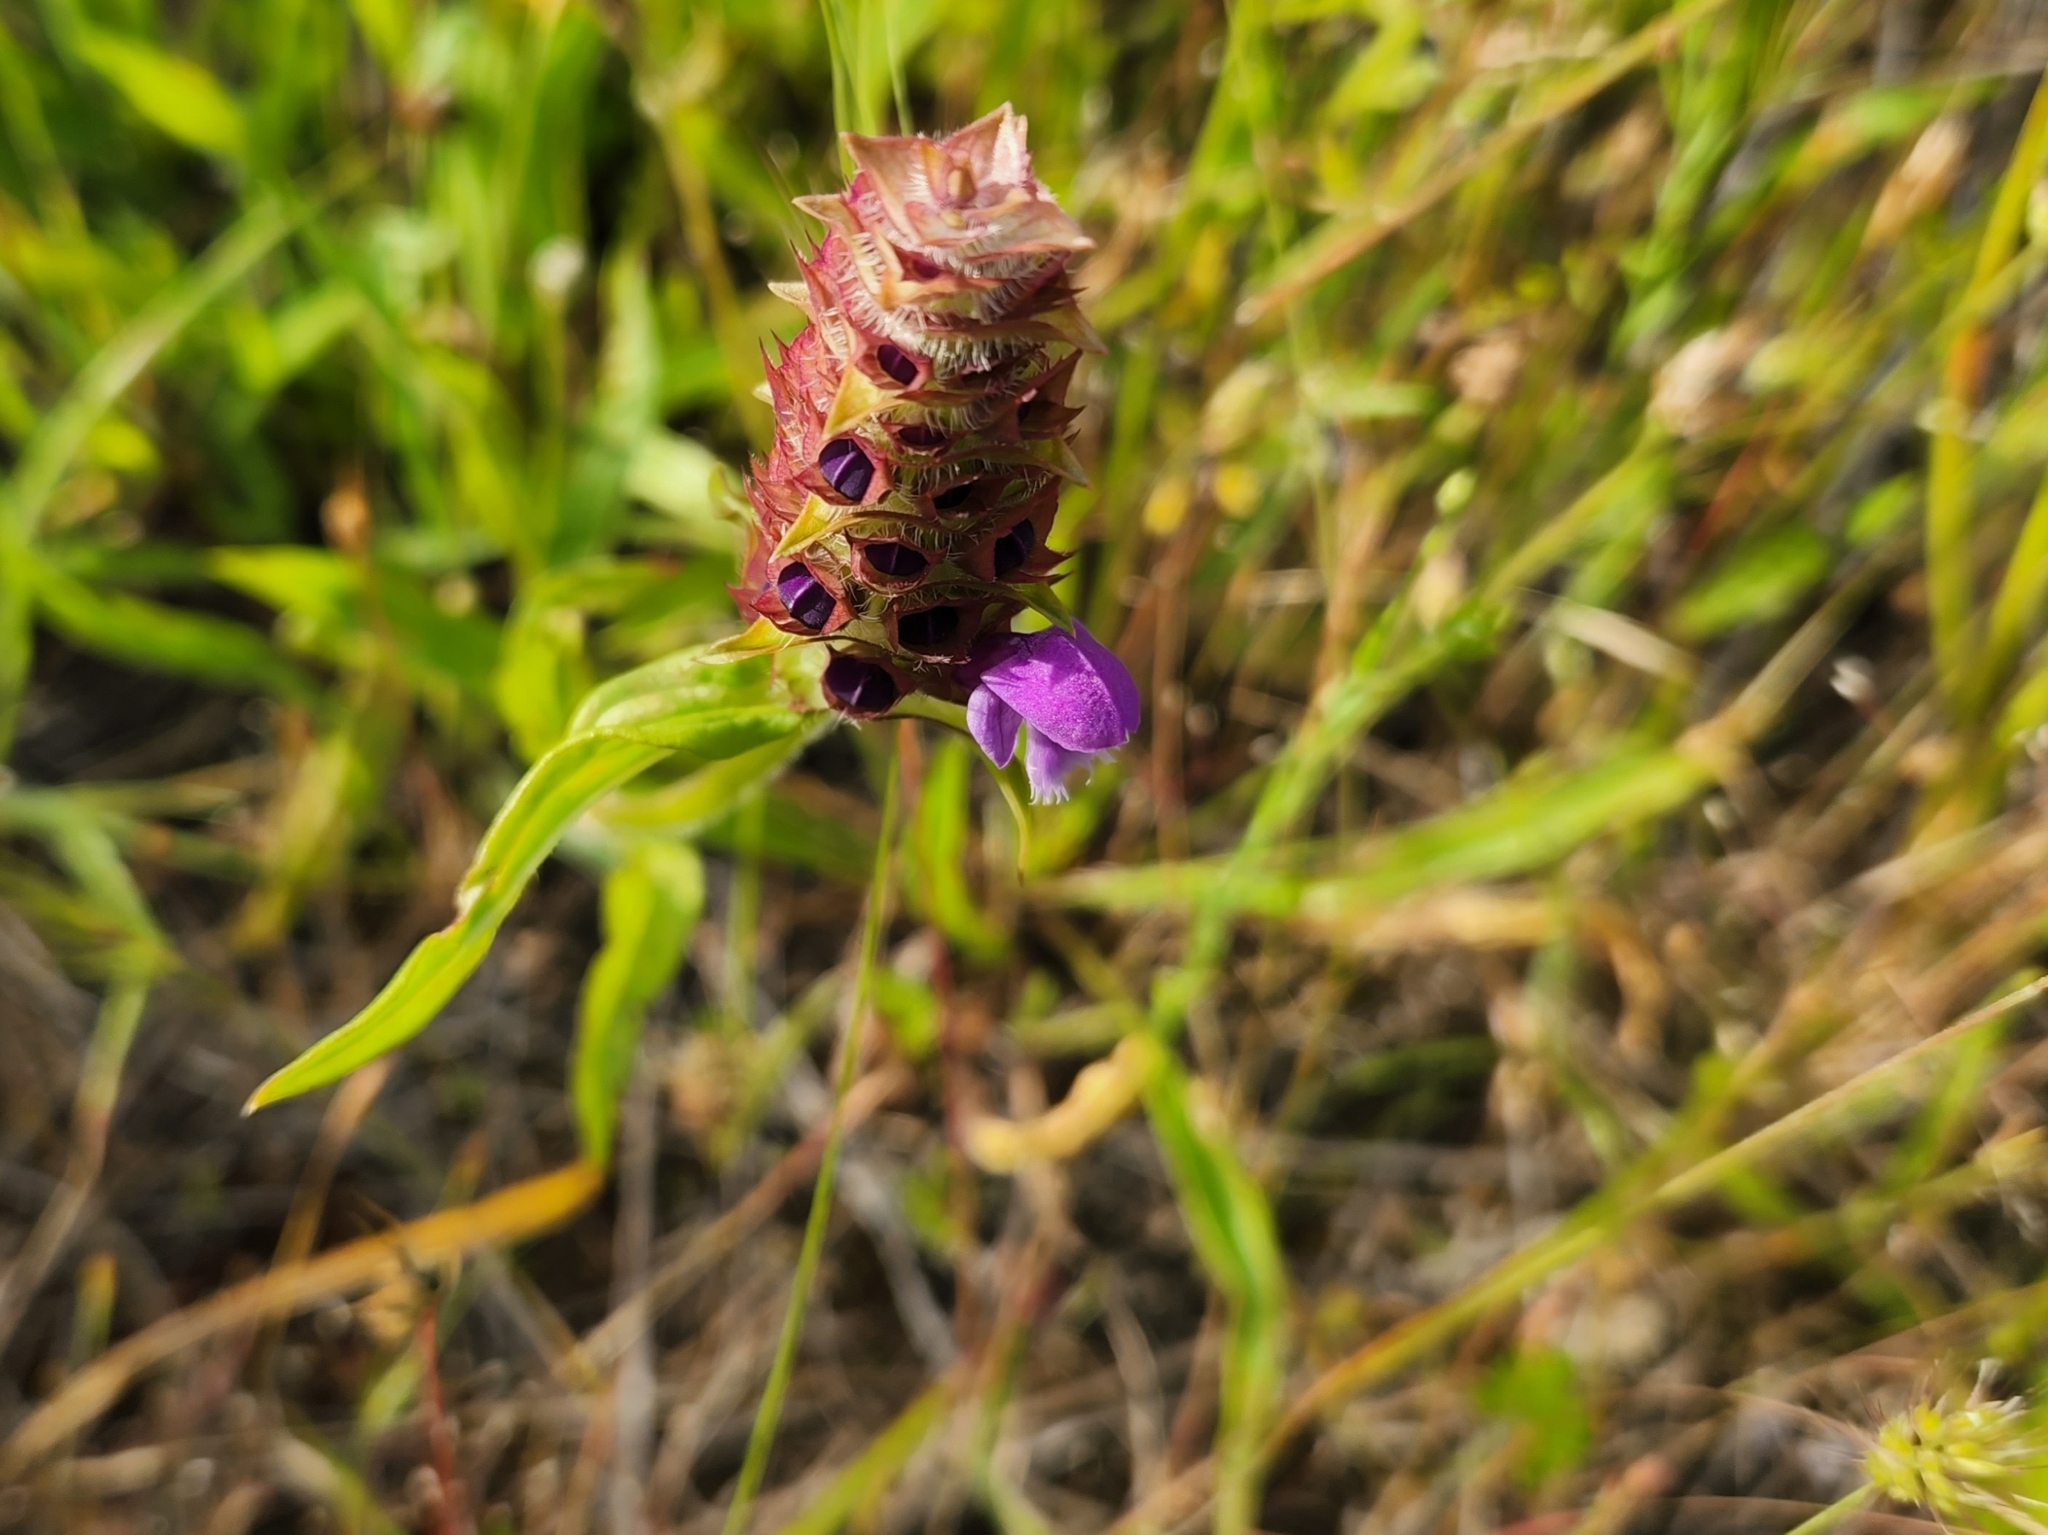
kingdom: Plantae
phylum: Tracheophyta
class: Magnoliopsida
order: Lamiales
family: Lamiaceae
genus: Prunella
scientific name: Prunella vulgaris
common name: Heal-all
